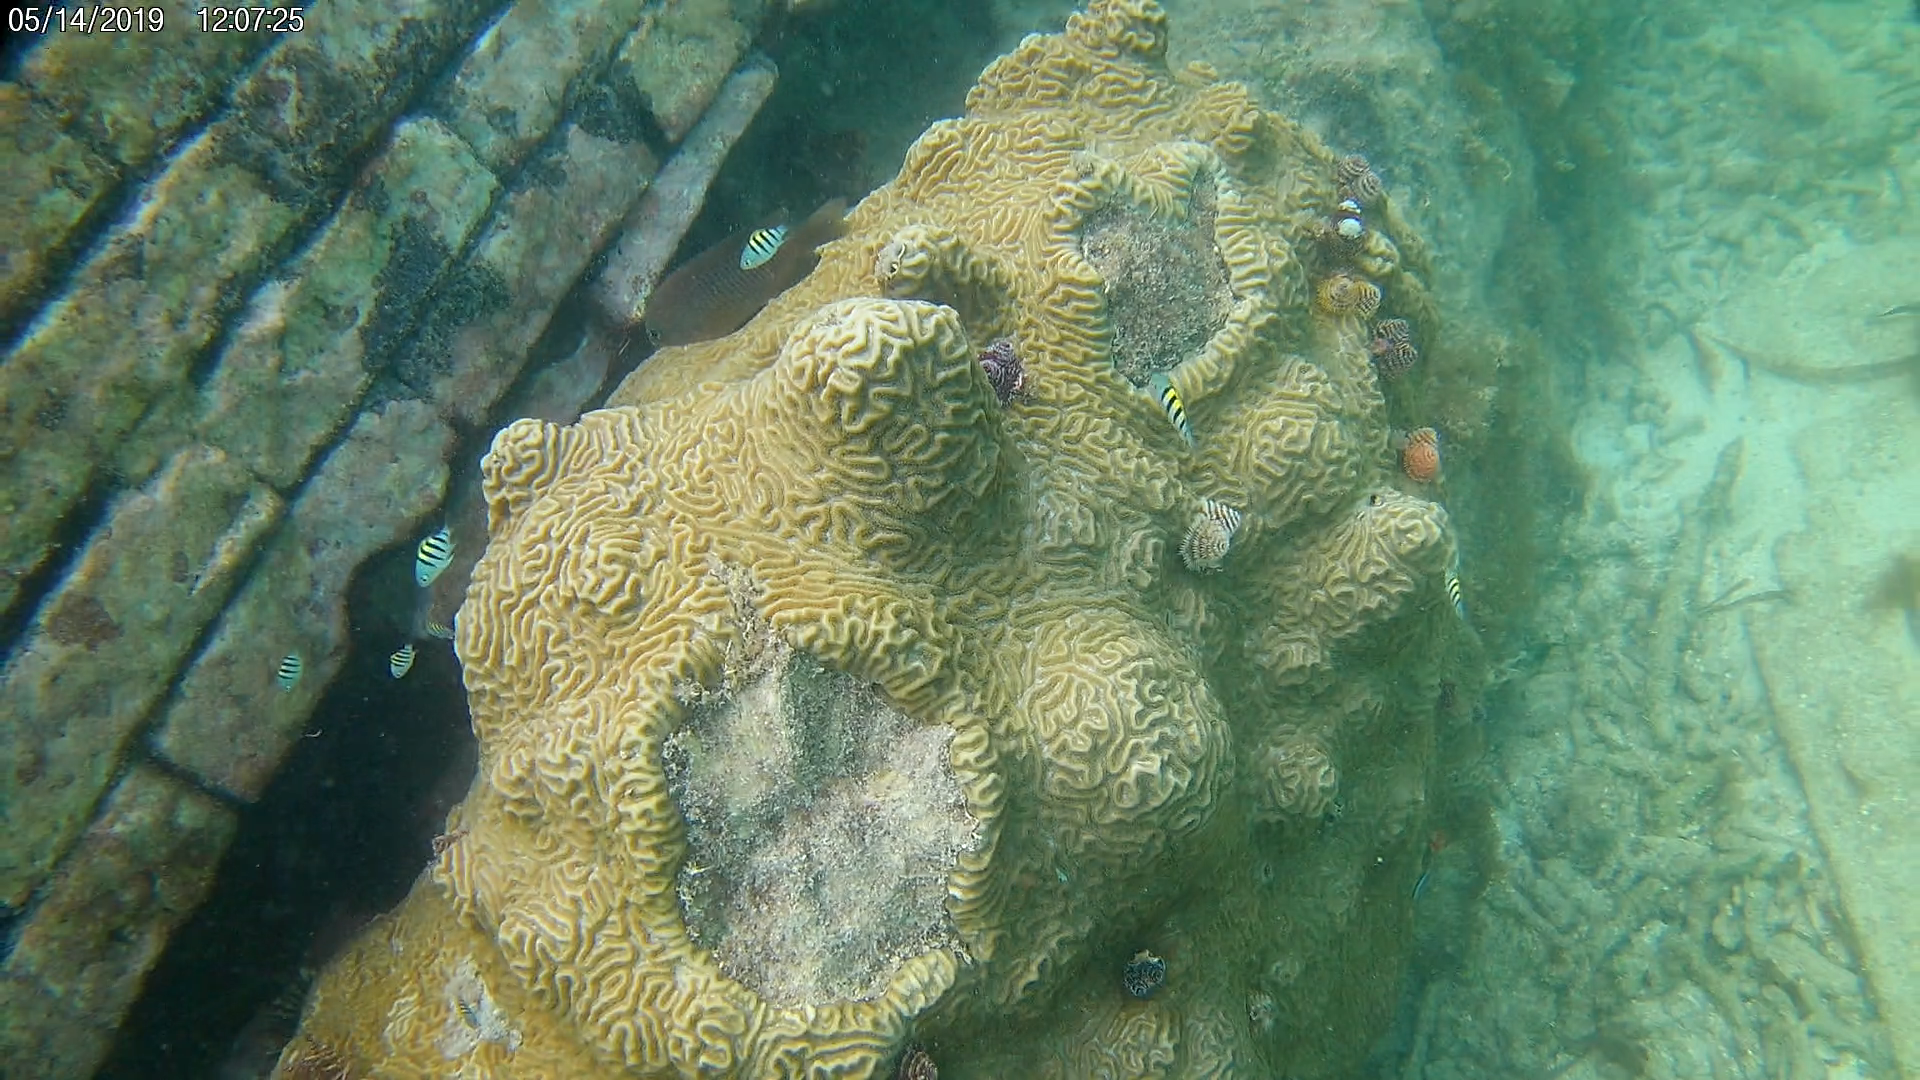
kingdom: Animalia
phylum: Chordata
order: Perciformes
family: Pomacentridae
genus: Abudefduf
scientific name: Abudefduf saxatilis
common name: Sergeant major
